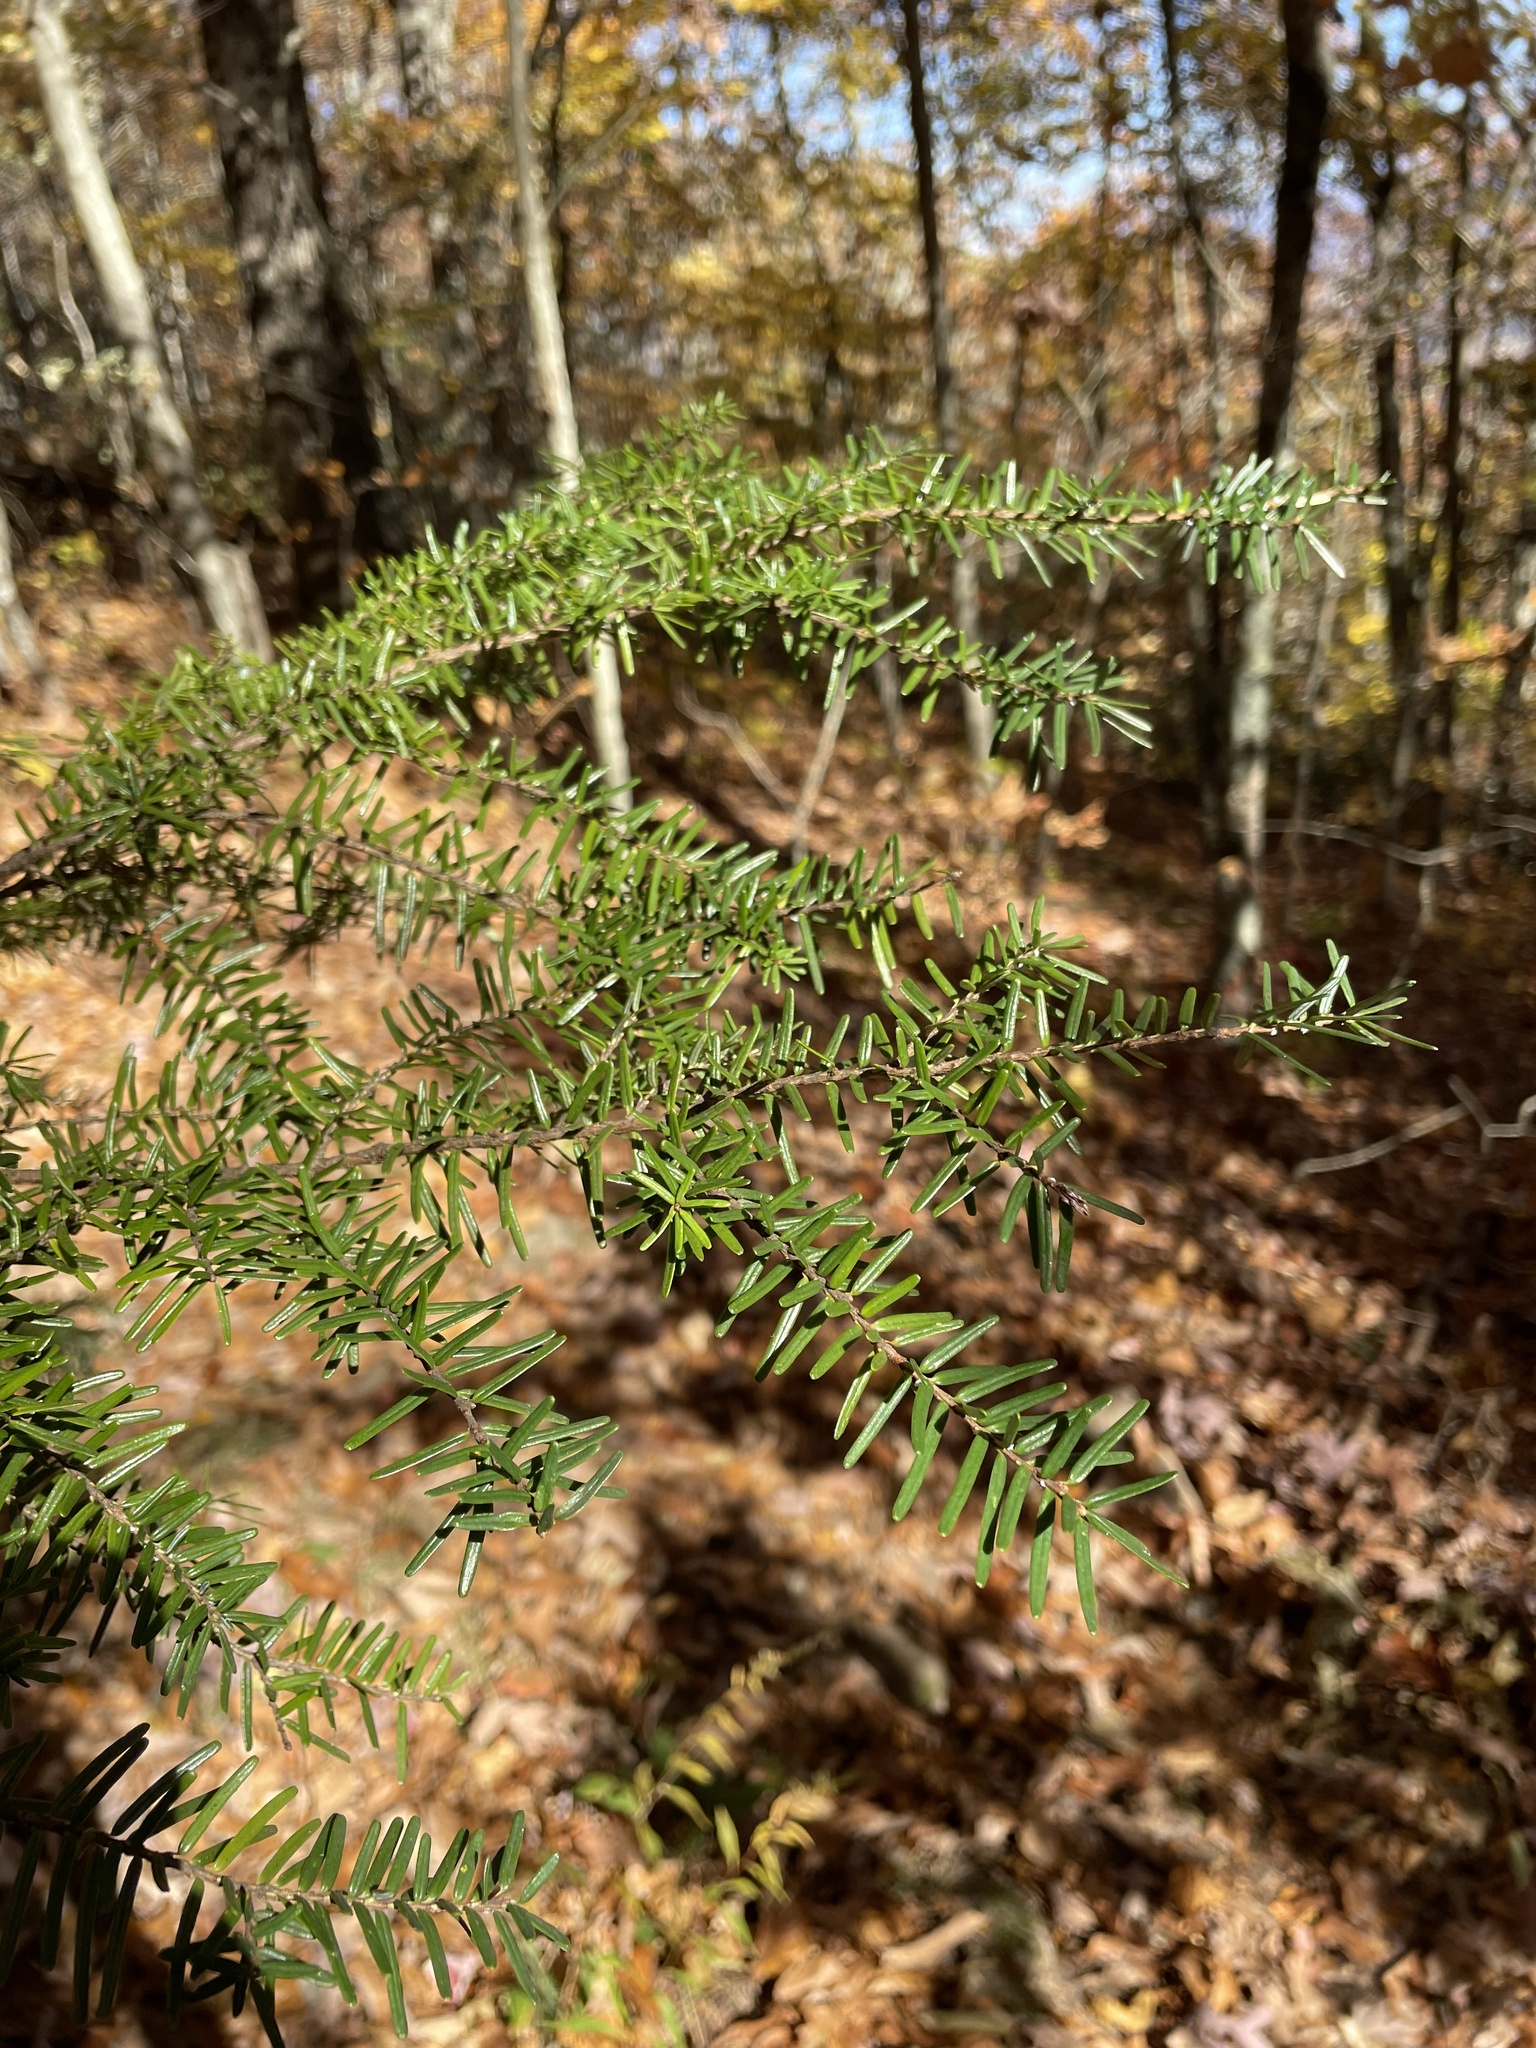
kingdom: Plantae
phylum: Tracheophyta
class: Pinopsida
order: Pinales
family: Pinaceae
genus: Tsuga
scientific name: Tsuga caroliniana
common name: Carolina hemlock
